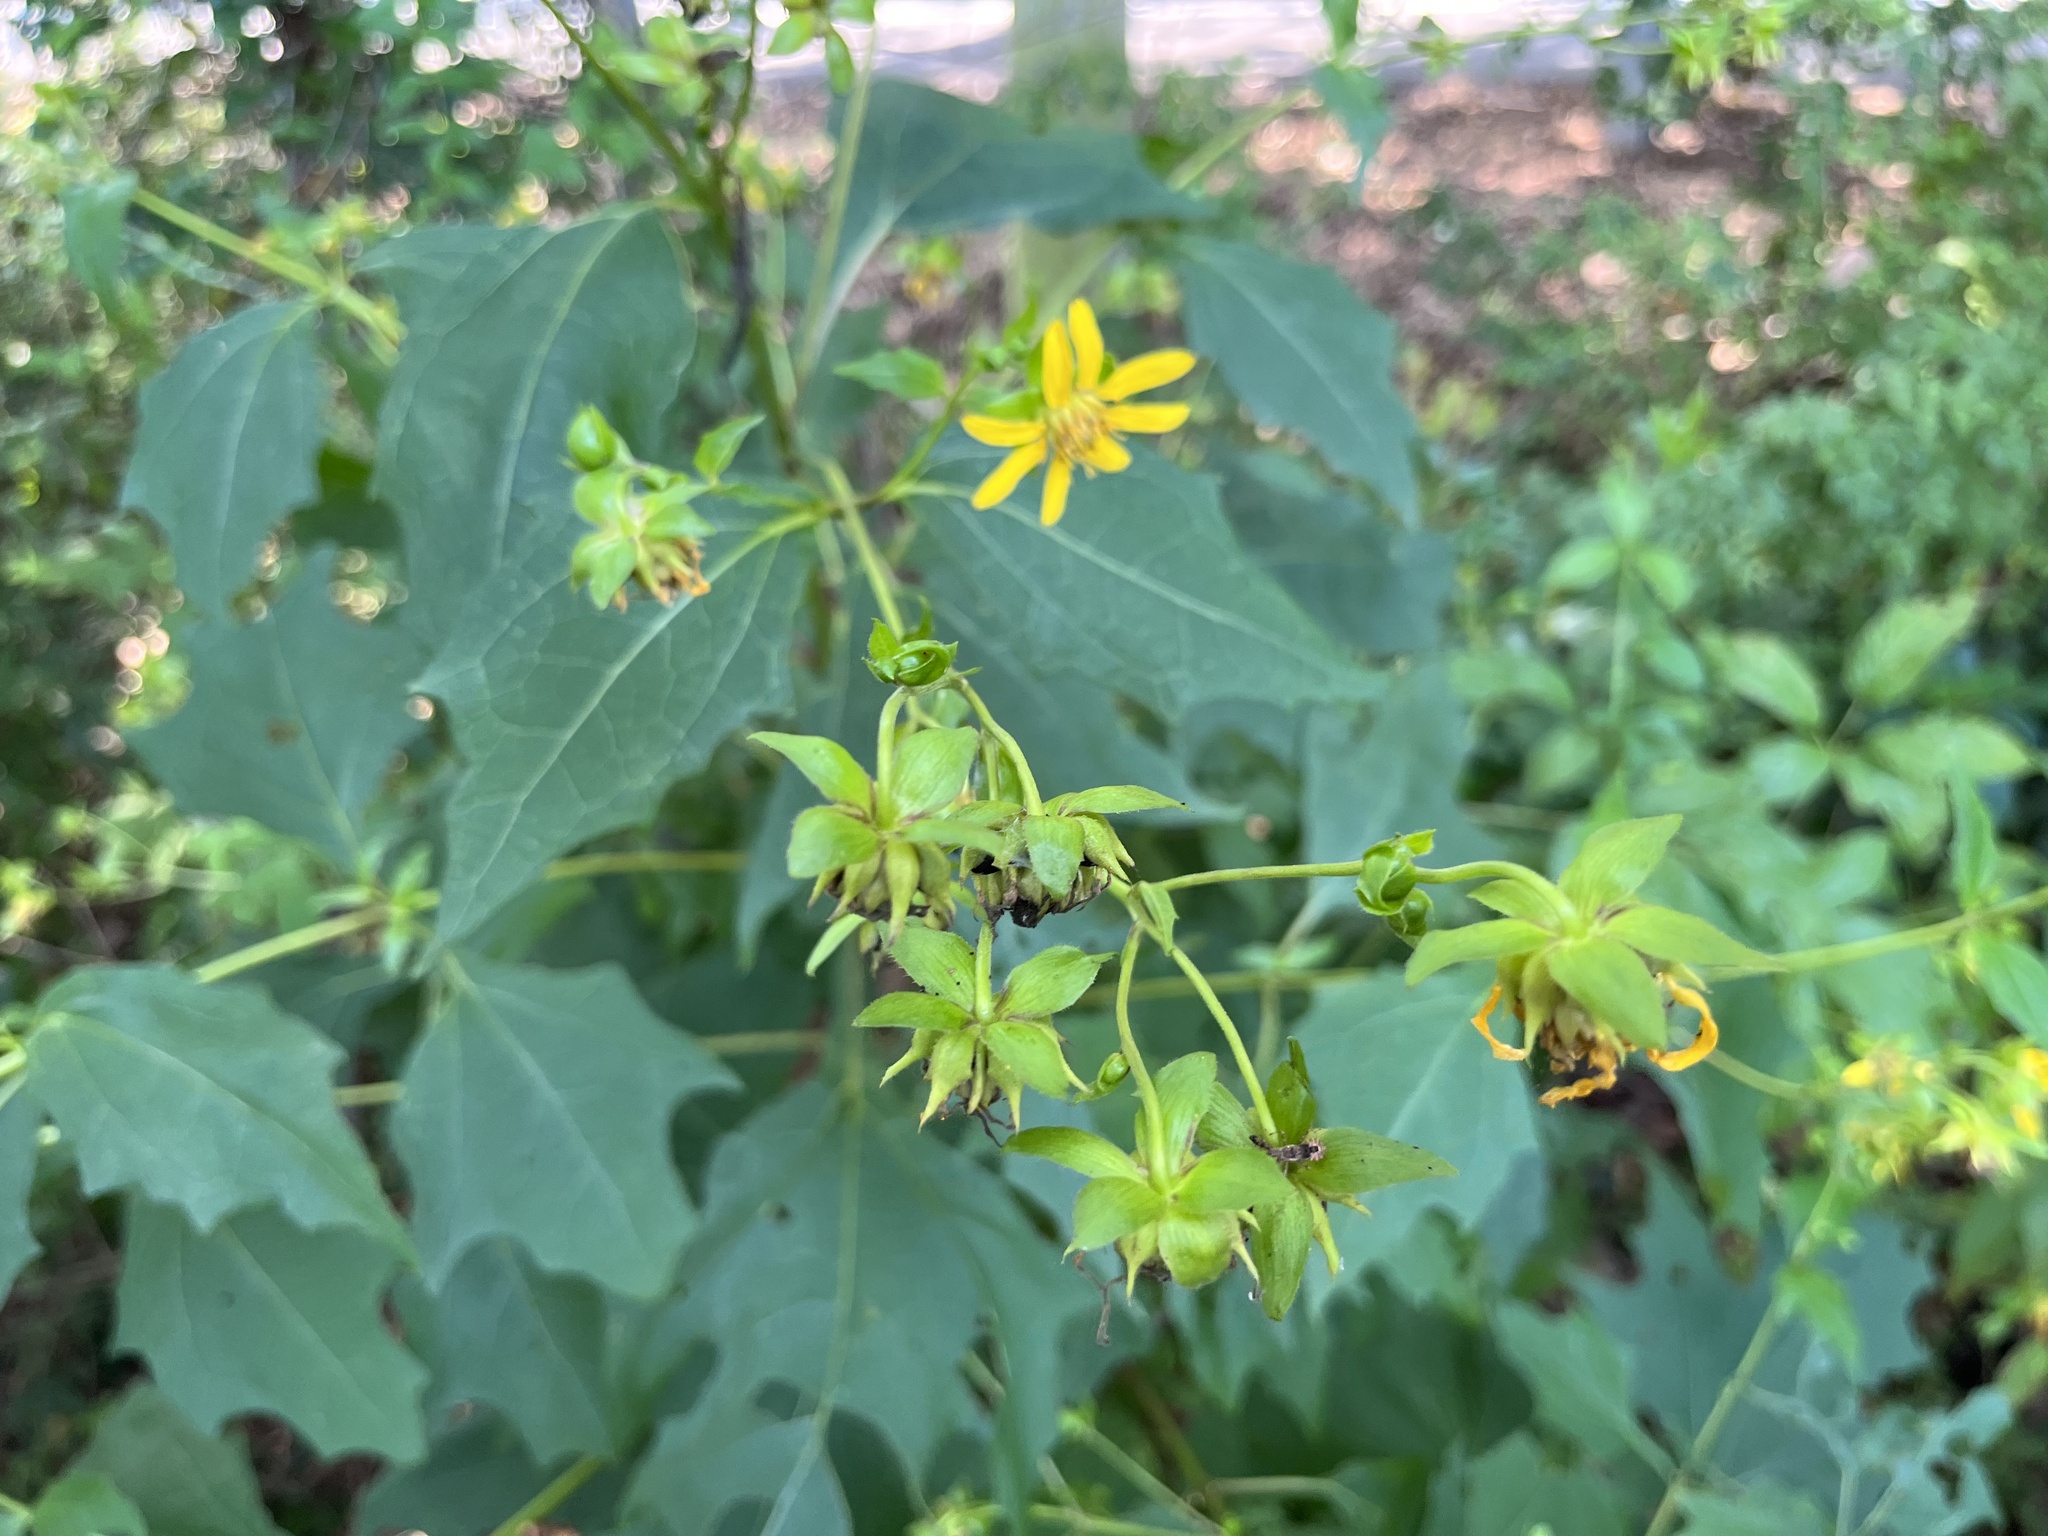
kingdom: Plantae
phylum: Tracheophyta
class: Magnoliopsida
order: Asterales
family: Asteraceae
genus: Smallanthus
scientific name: Smallanthus uvedalia
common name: Bear's-foot
